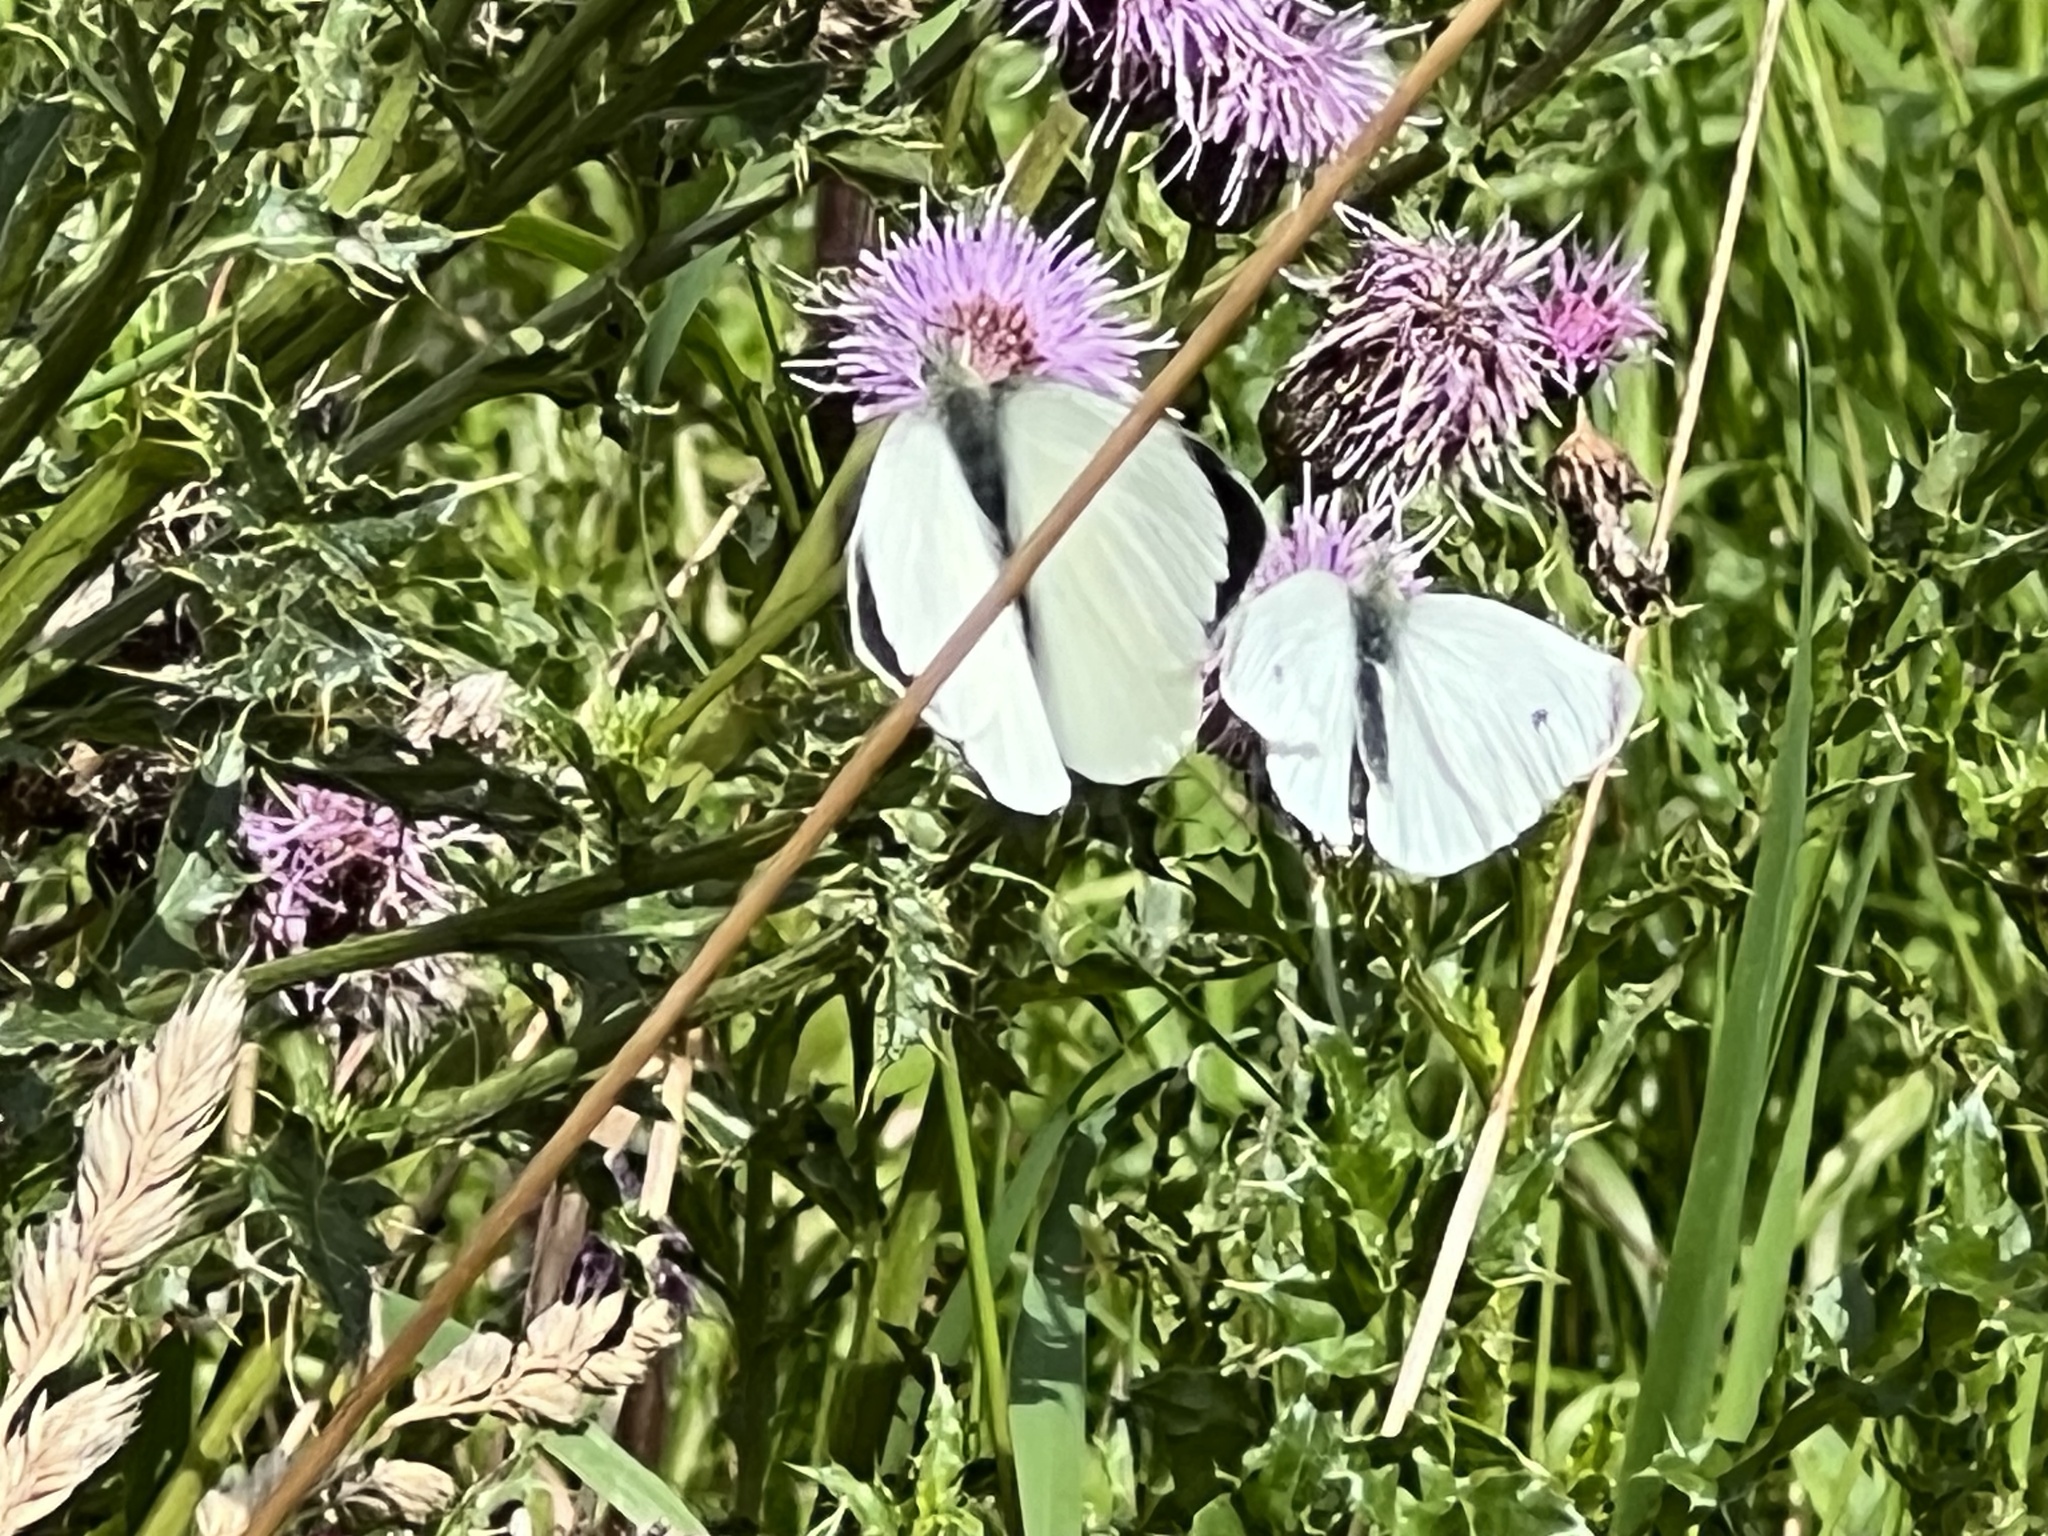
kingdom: Animalia
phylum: Arthropoda
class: Insecta
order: Lepidoptera
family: Pieridae
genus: Pieris
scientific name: Pieris brassicae
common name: Large white
